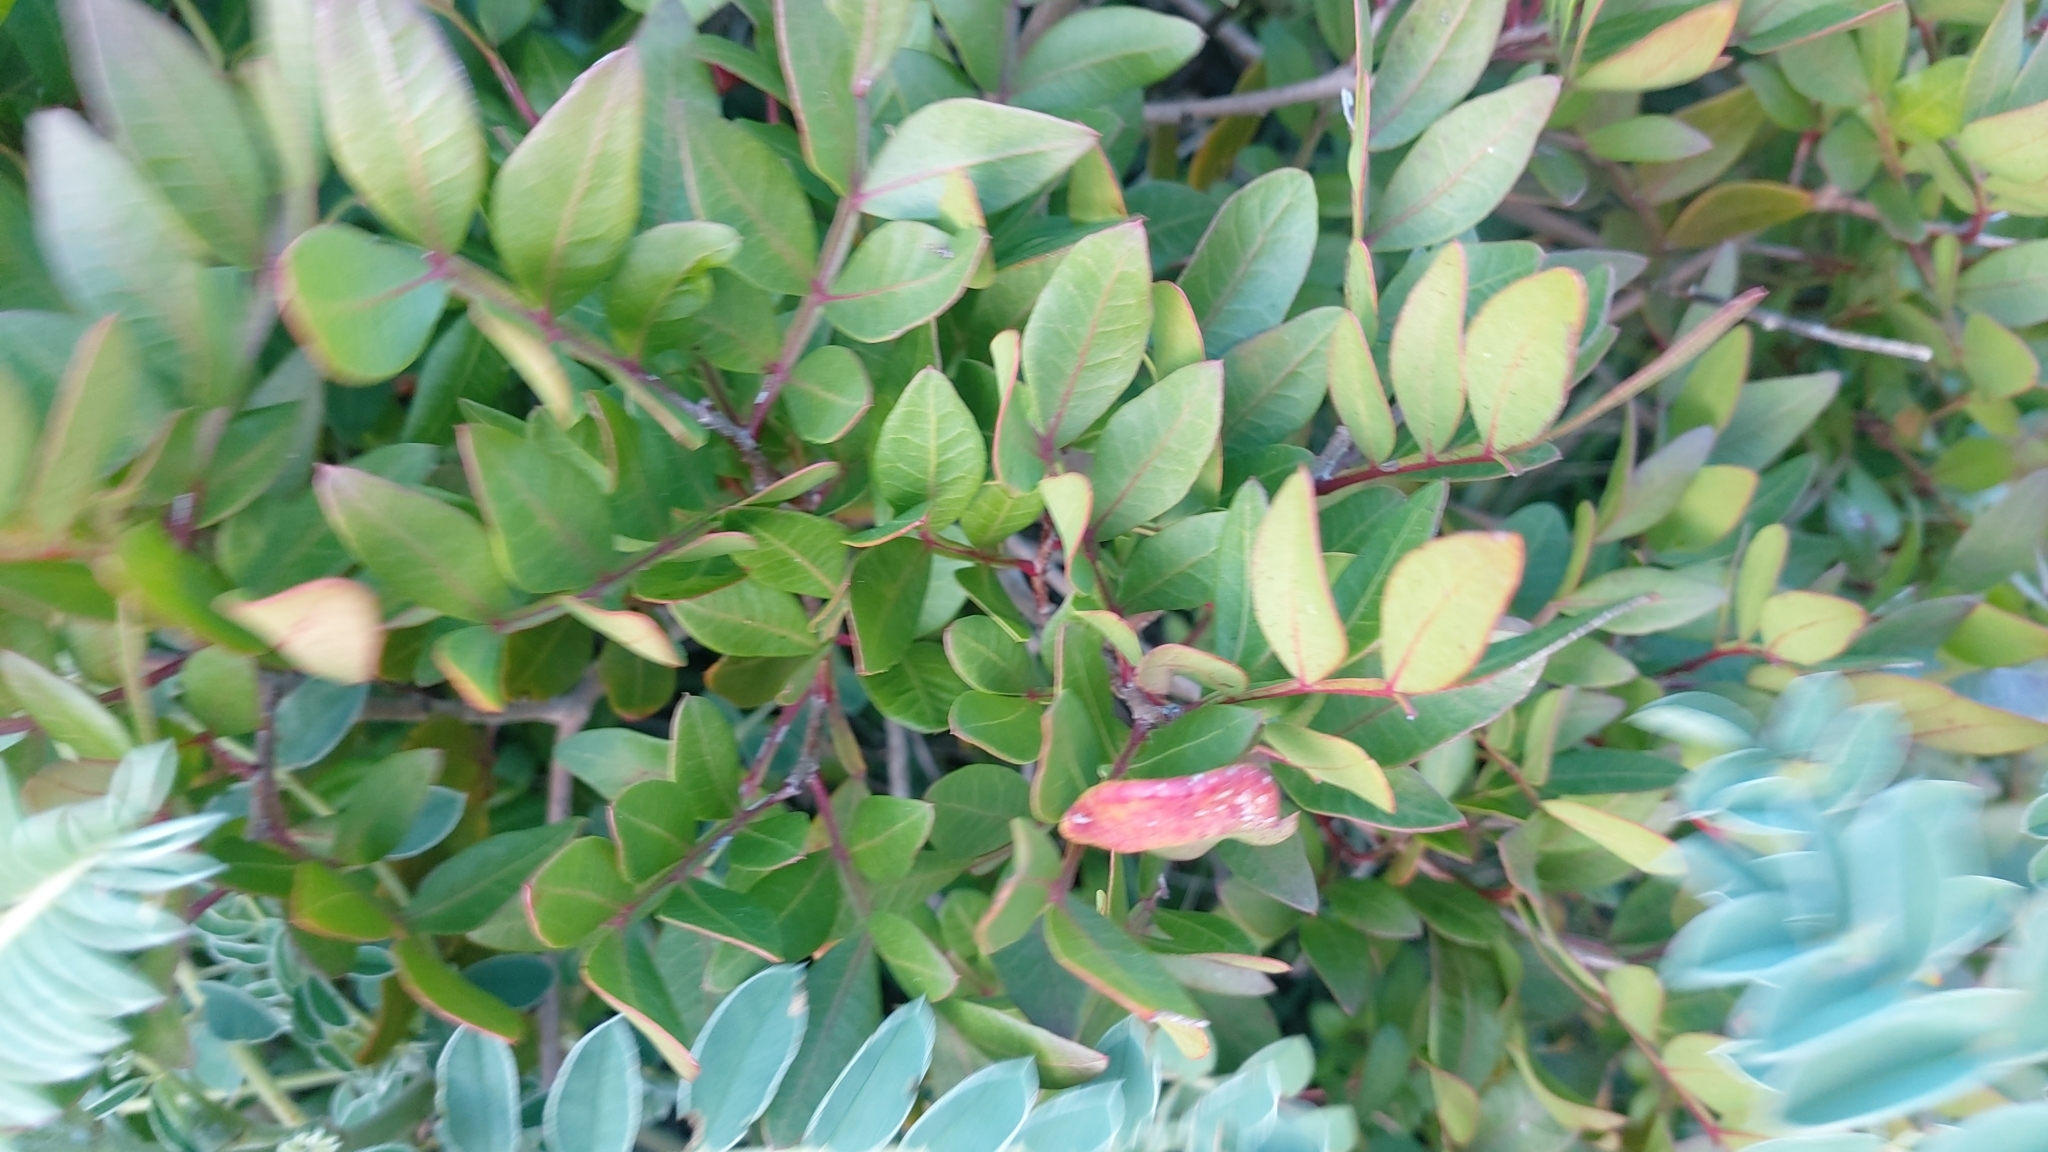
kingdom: Animalia
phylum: Arthropoda
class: Insecta
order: Hemiptera
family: Aphididae
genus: Aploneura
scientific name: Aploneura lentisci
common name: Mealy grass root aphid
